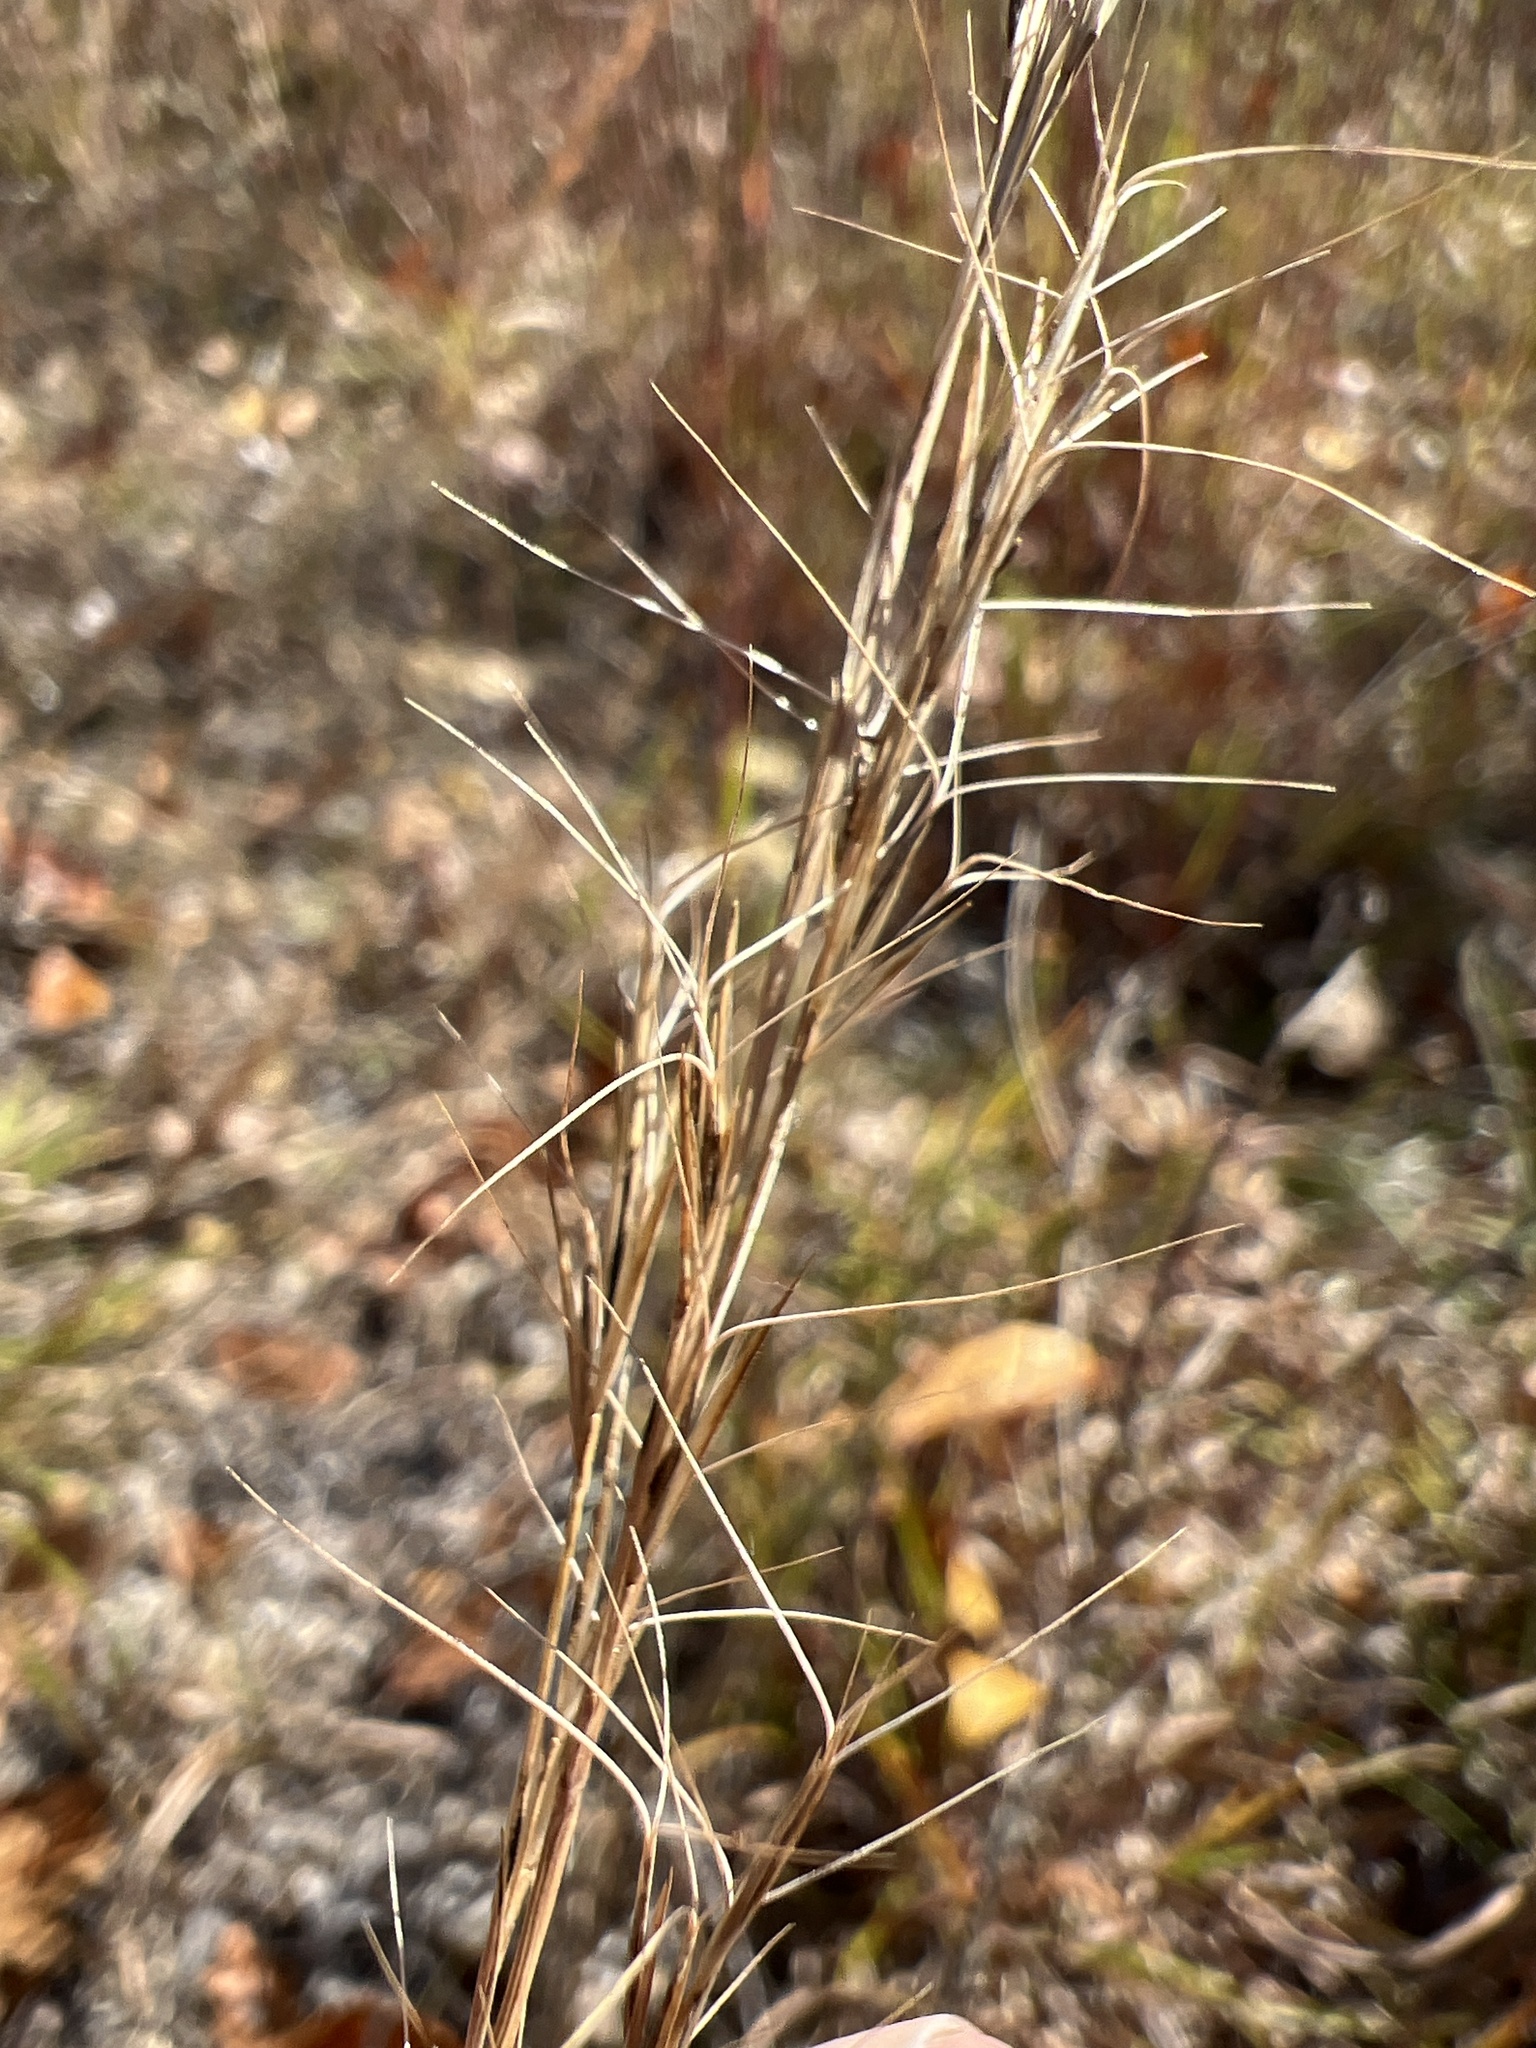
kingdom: Plantae
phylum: Tracheophyta
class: Liliopsida
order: Poales
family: Poaceae
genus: Aristida
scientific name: Aristida purpurascens
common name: Arrow-feather
